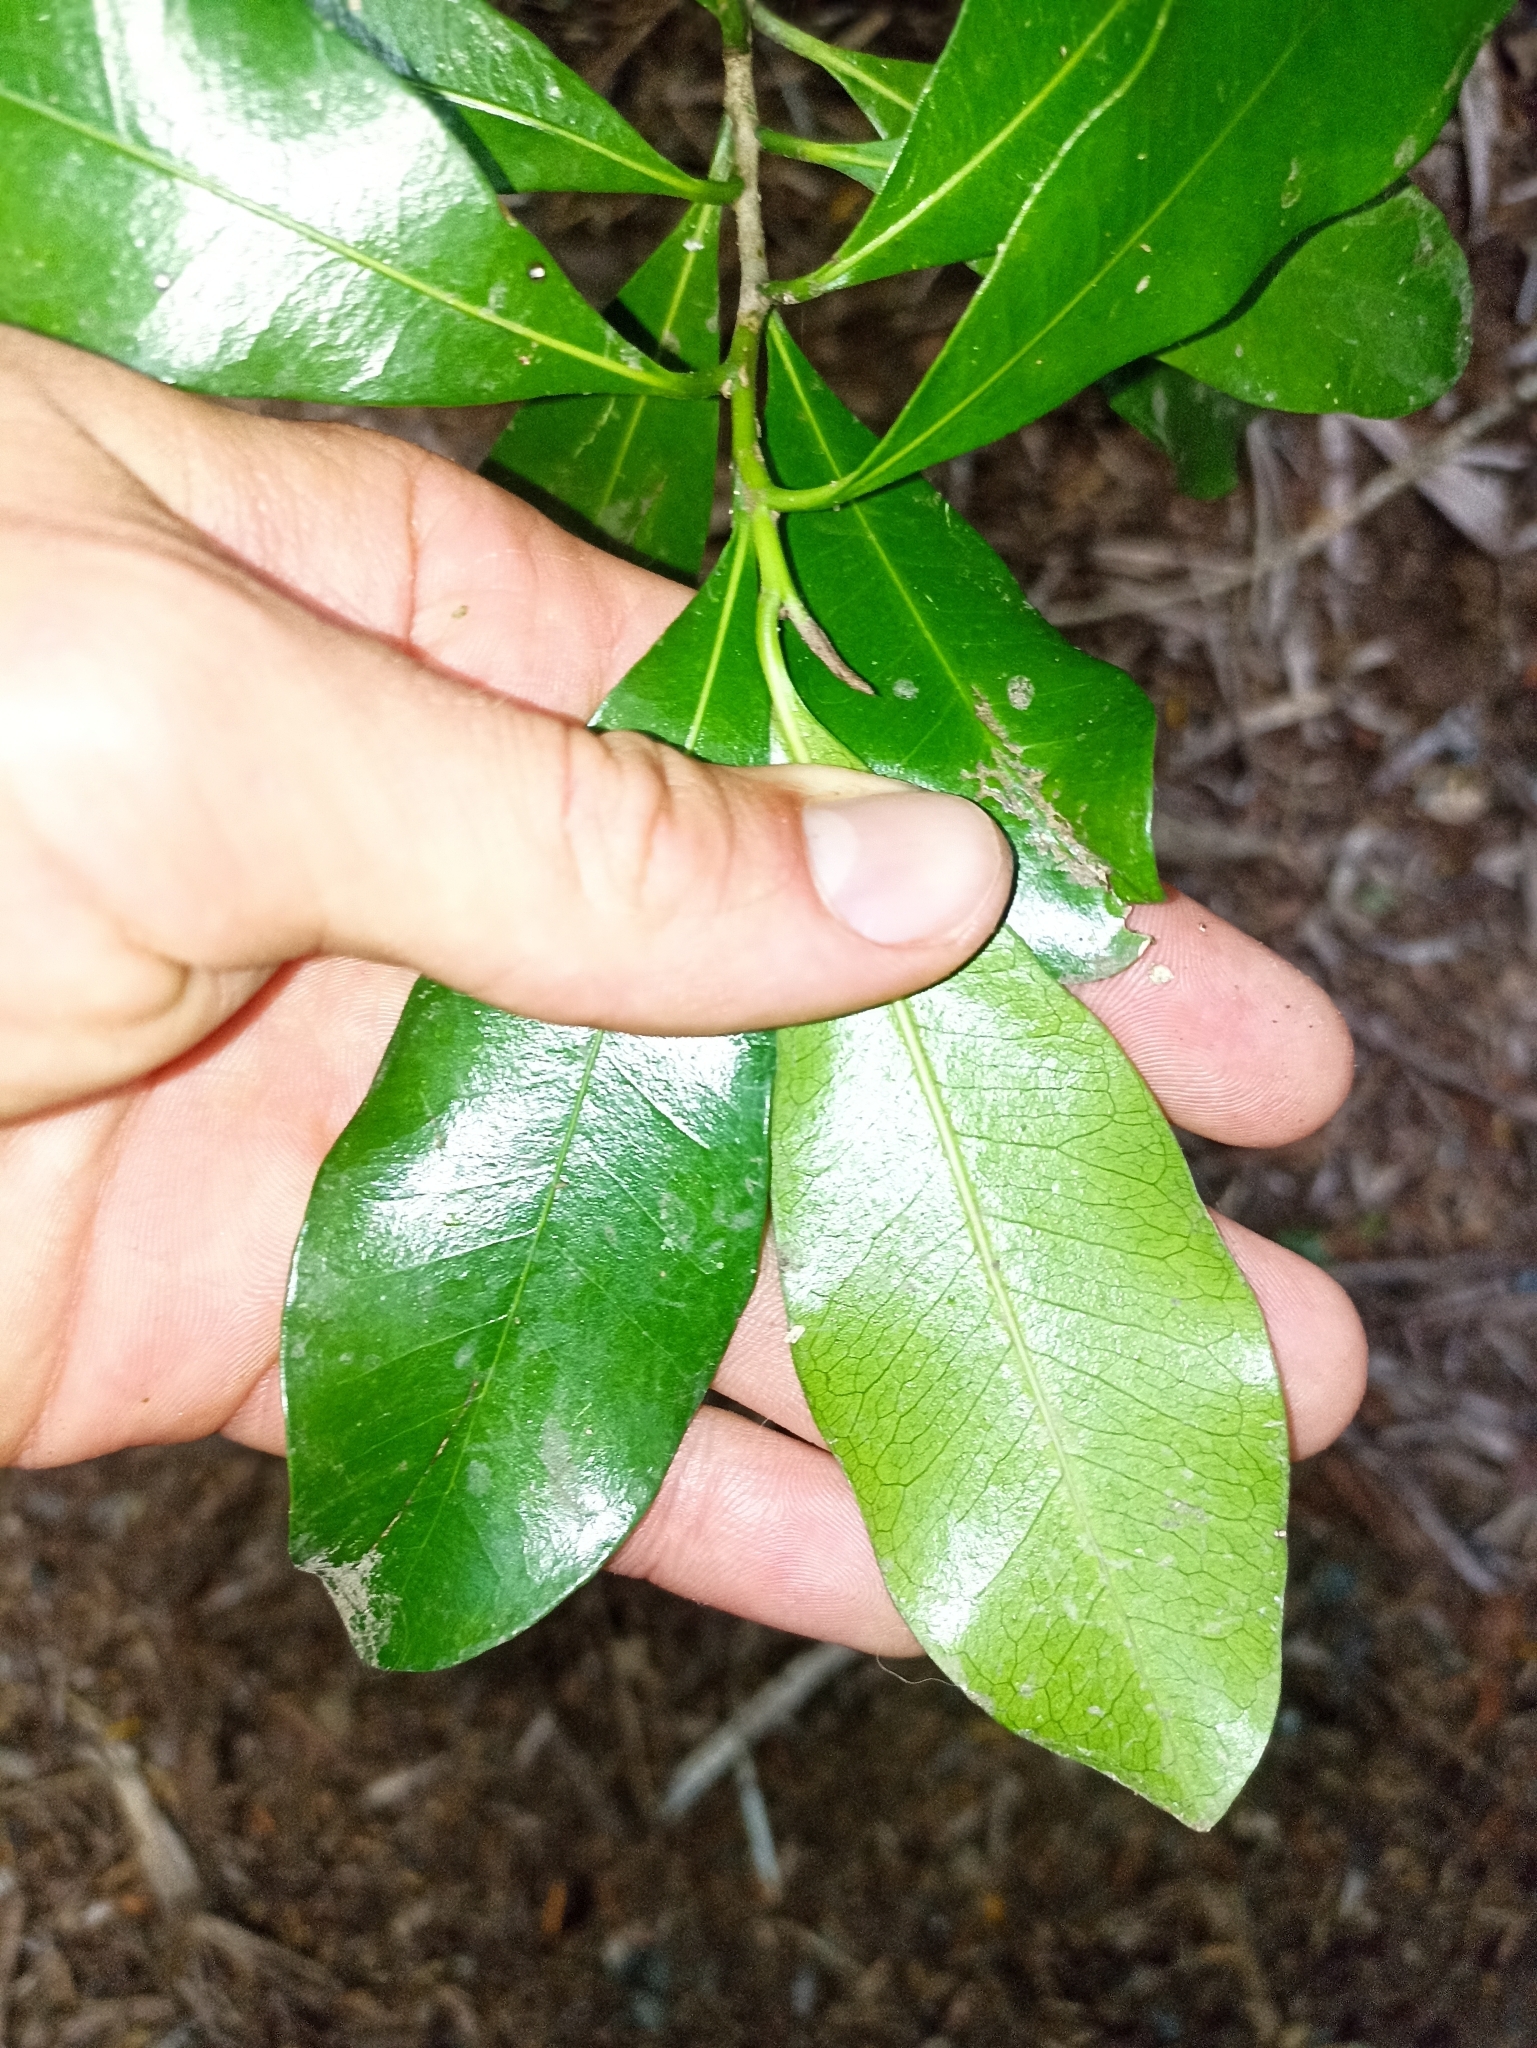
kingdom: Plantae
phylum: Tracheophyta
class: Magnoliopsida
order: Ericales
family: Sapotaceae
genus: Planchonella
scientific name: Planchonella costata
